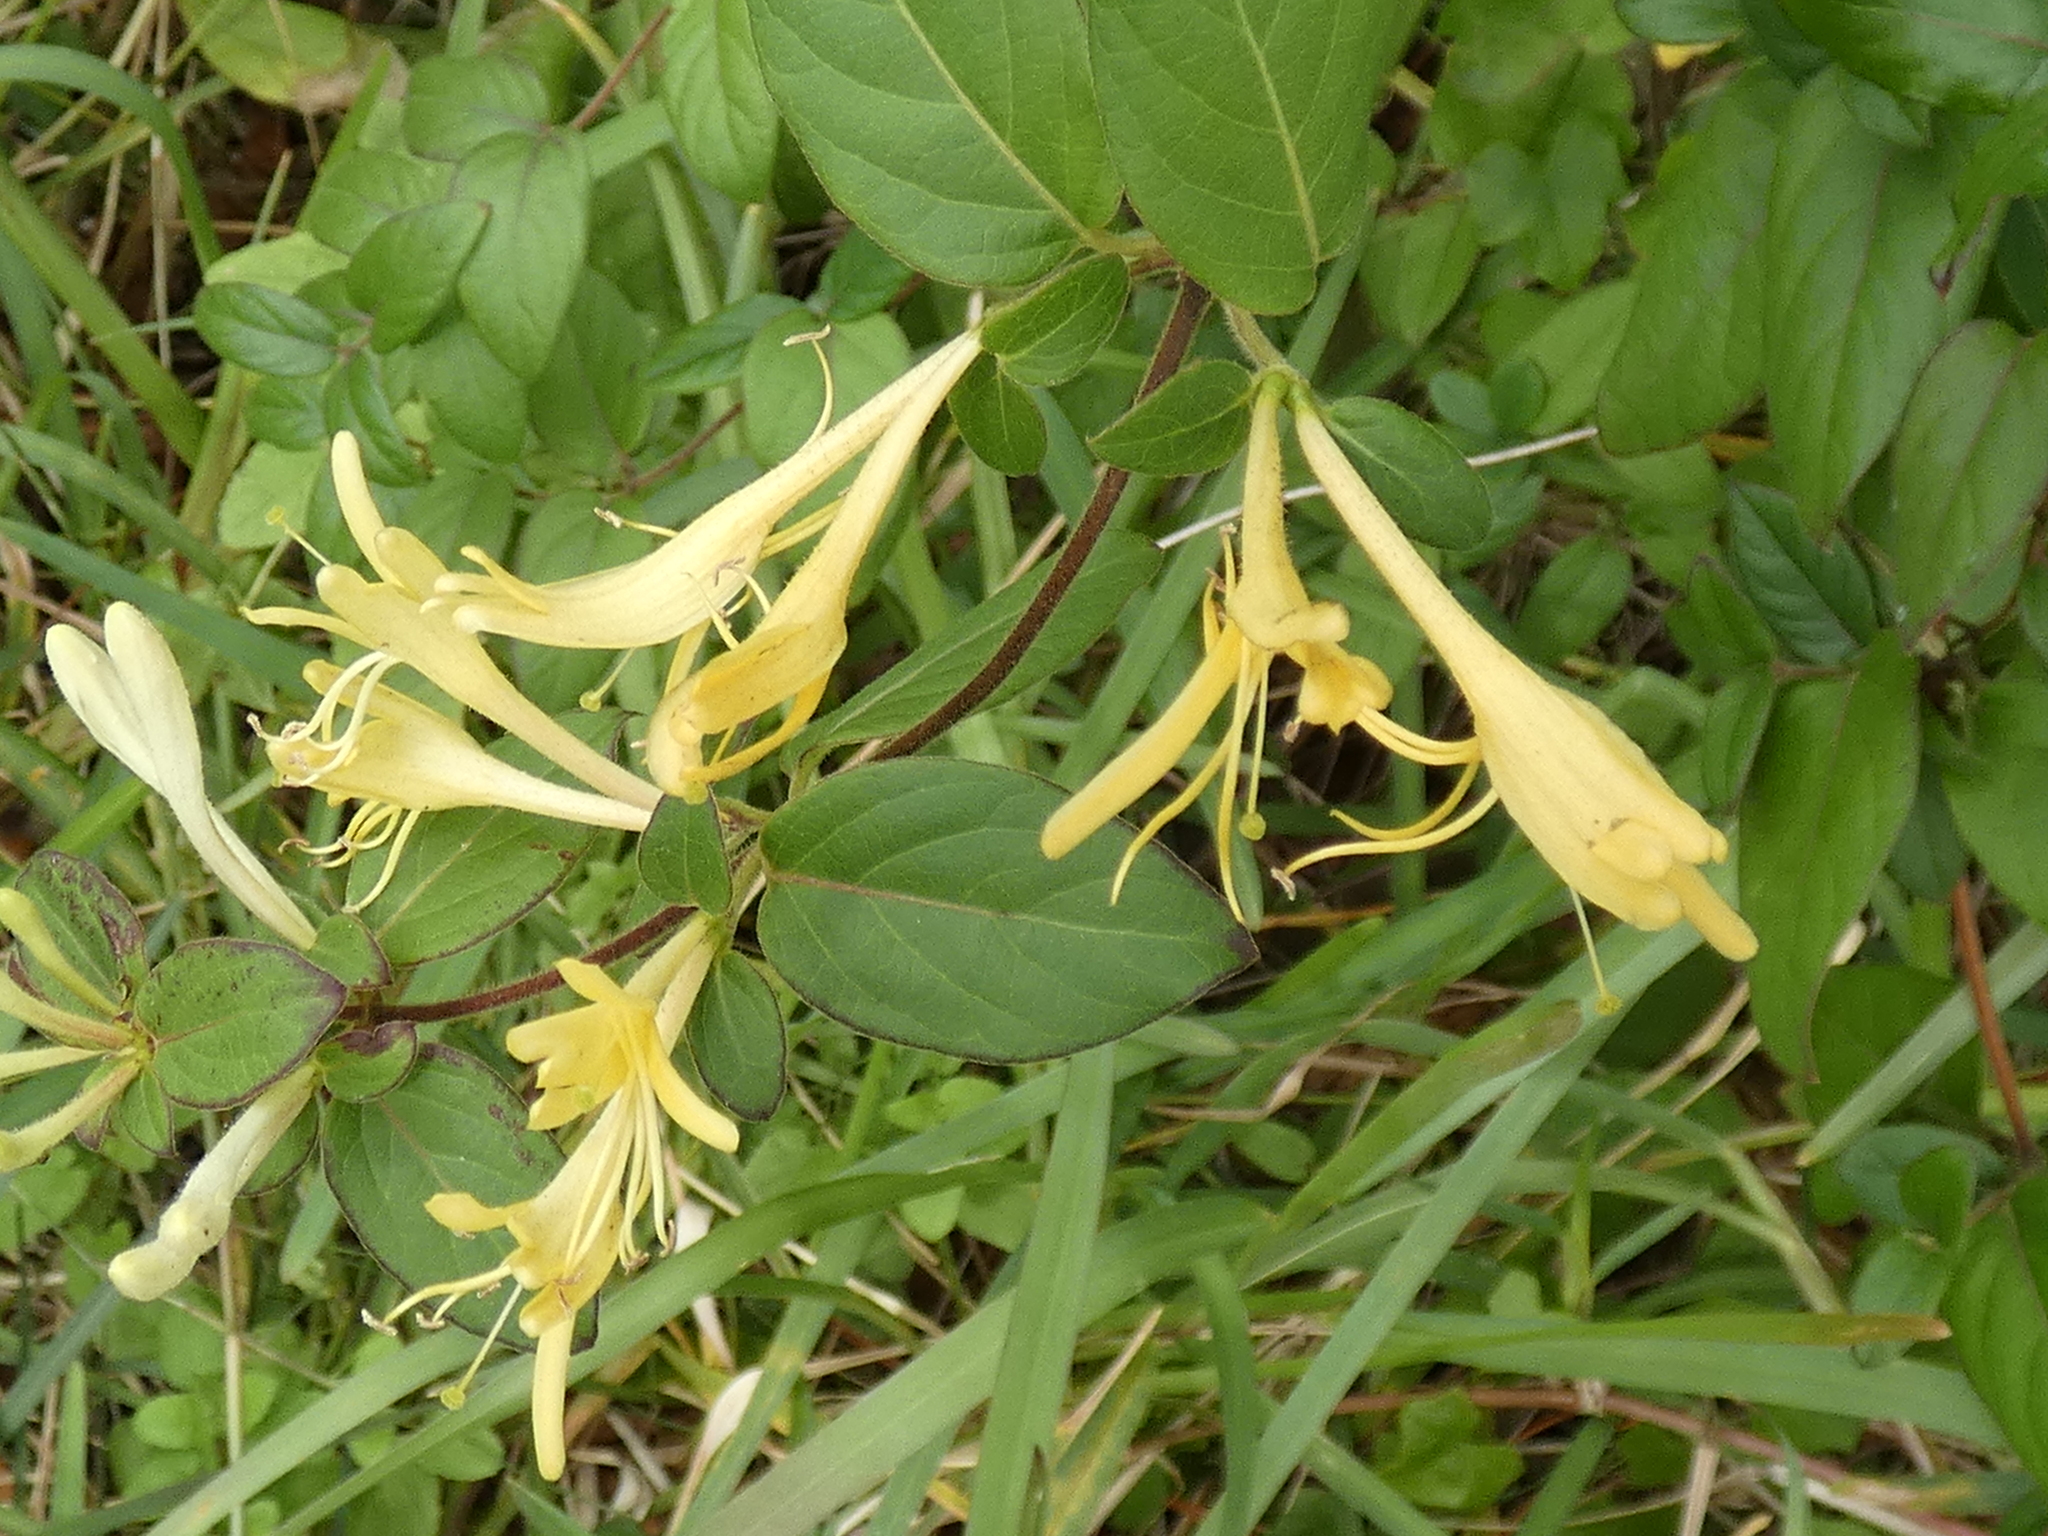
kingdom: Plantae
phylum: Tracheophyta
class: Magnoliopsida
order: Dipsacales
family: Caprifoliaceae
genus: Lonicera
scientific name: Lonicera japonica
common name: Japanese honeysuckle
